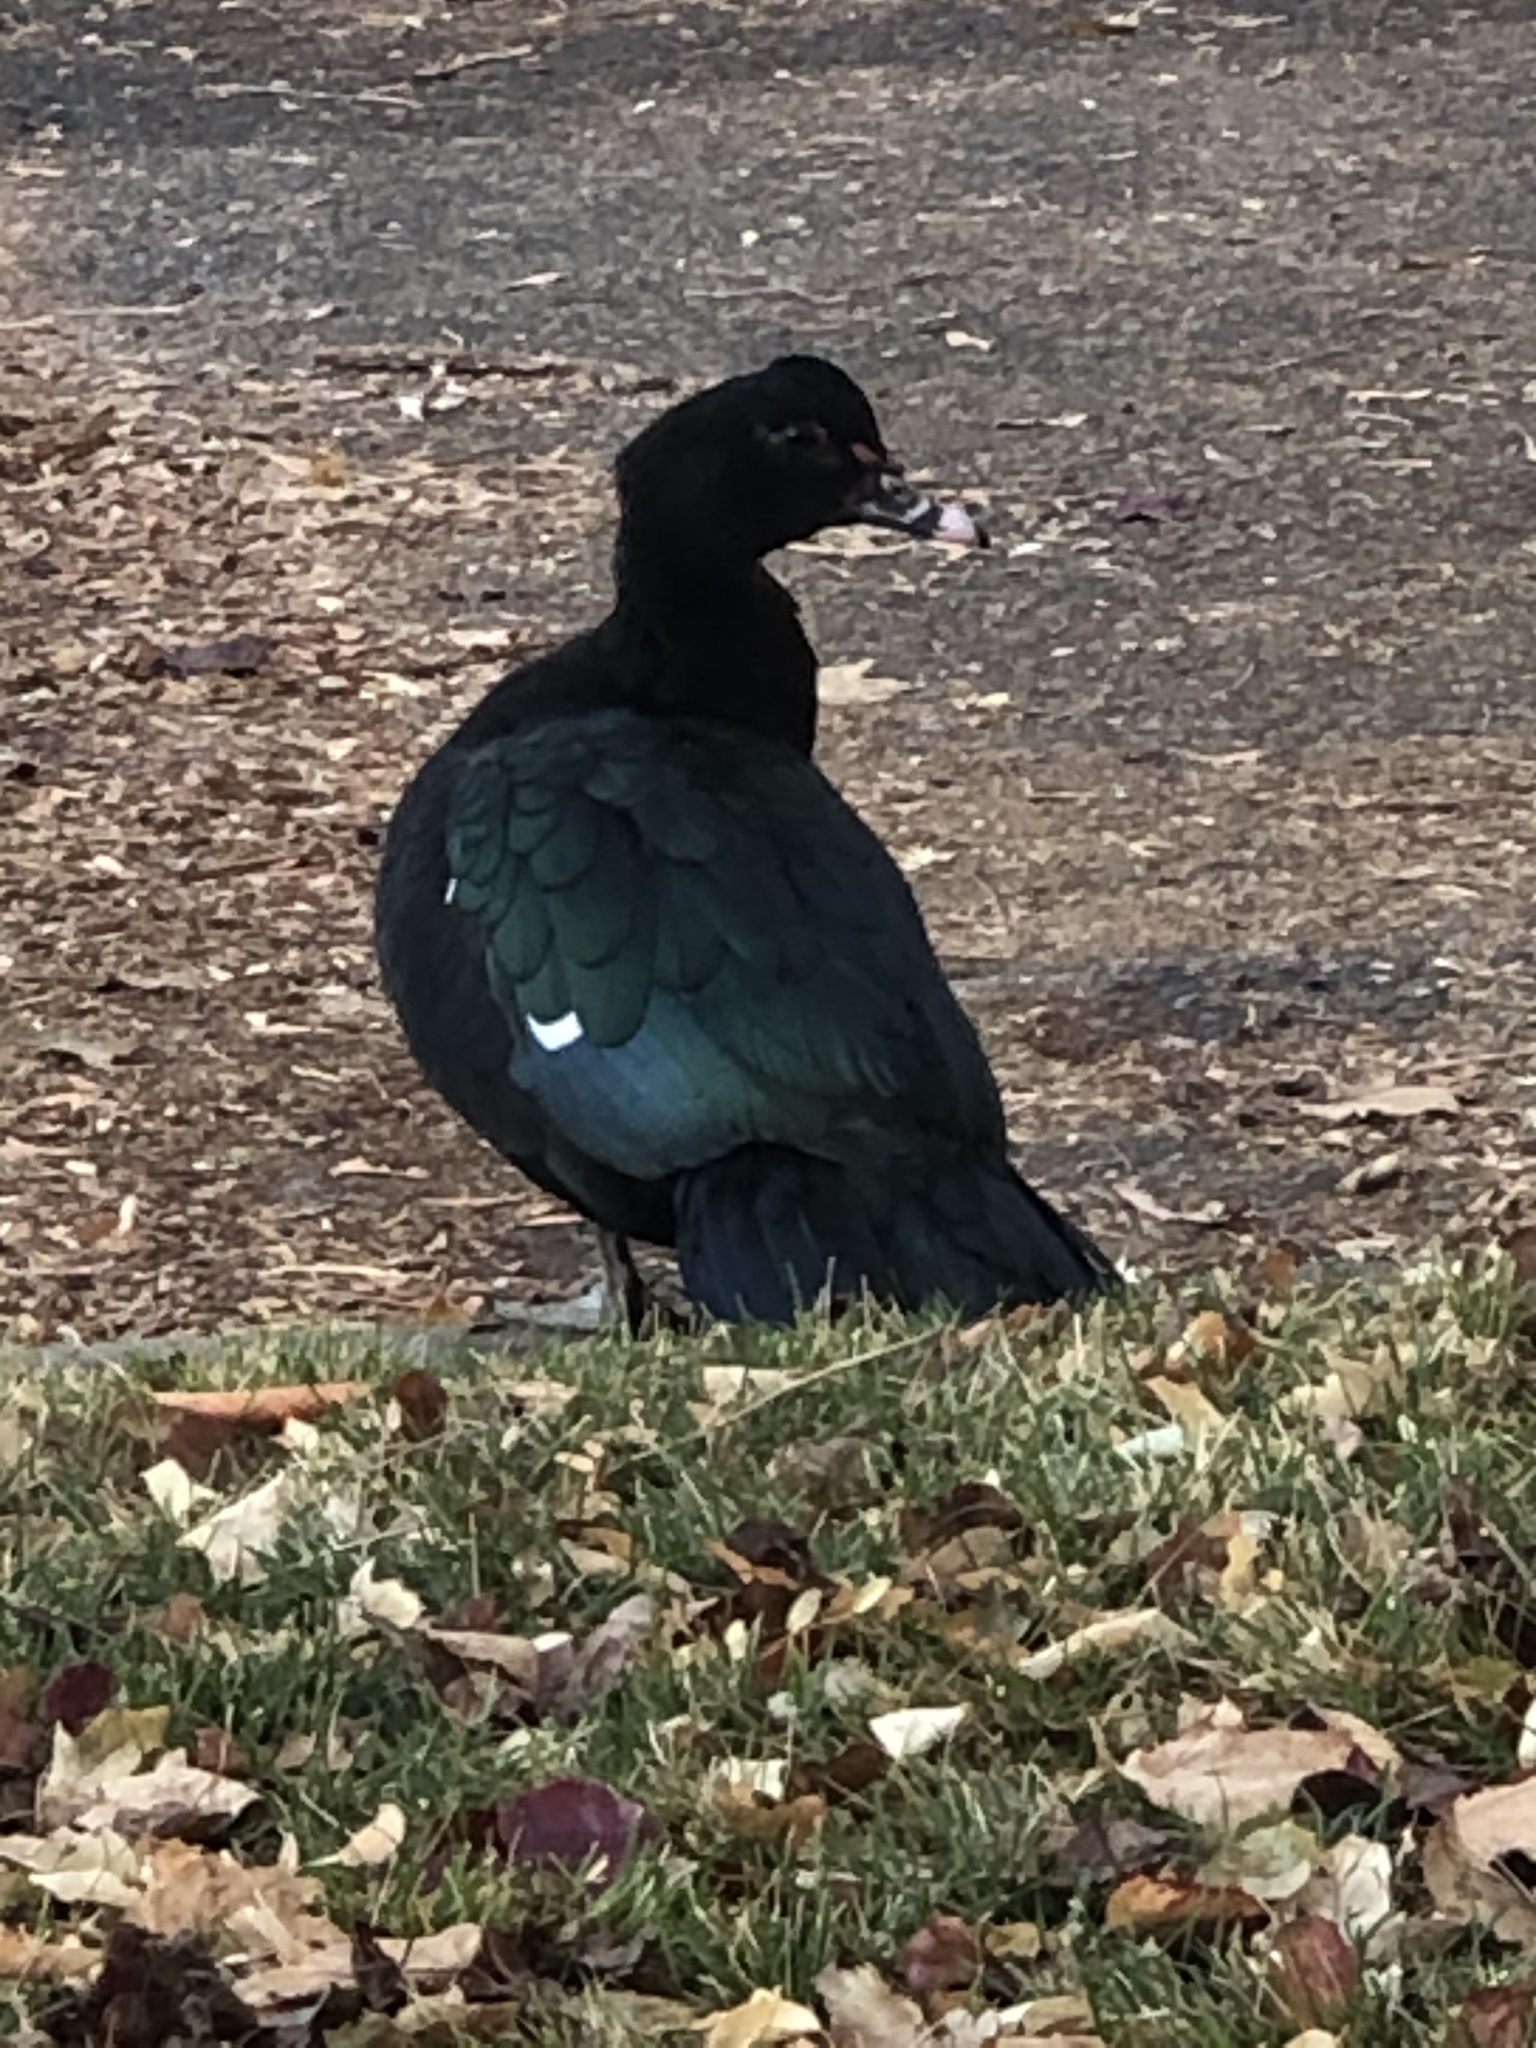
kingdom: Animalia
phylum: Chordata
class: Aves
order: Anseriformes
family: Anatidae
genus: Cairina
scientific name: Cairina moschata
